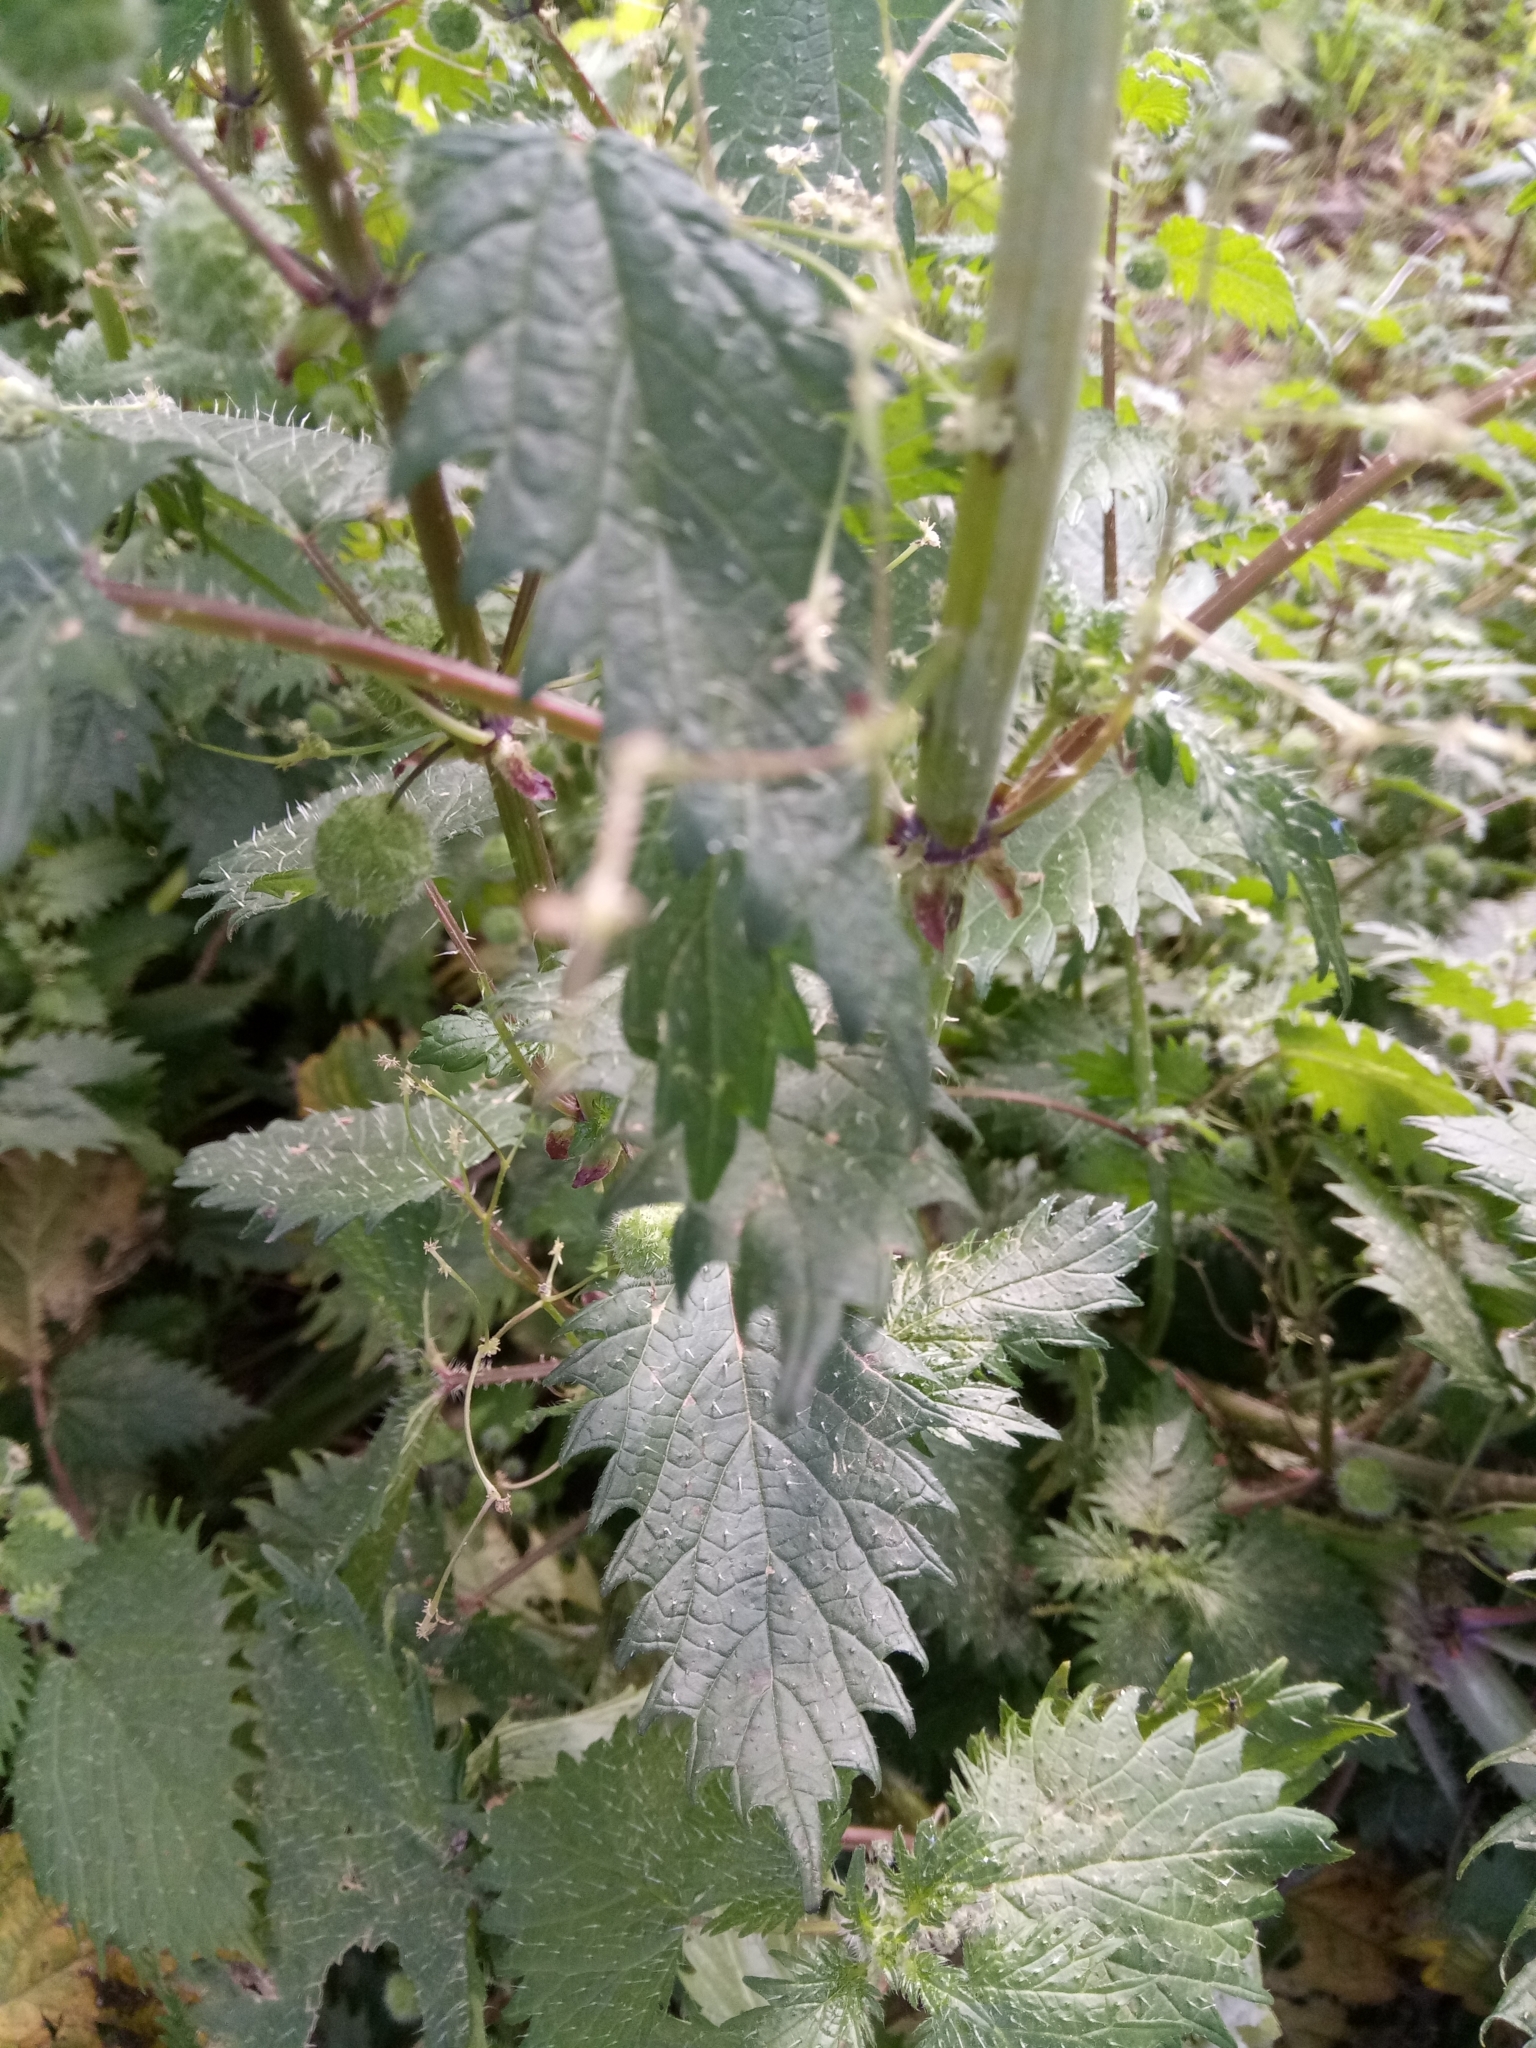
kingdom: Plantae
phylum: Tracheophyta
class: Magnoliopsida
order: Rosales
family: Urticaceae
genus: Urtica
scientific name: Urtica pilulifera
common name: Roman nettle
